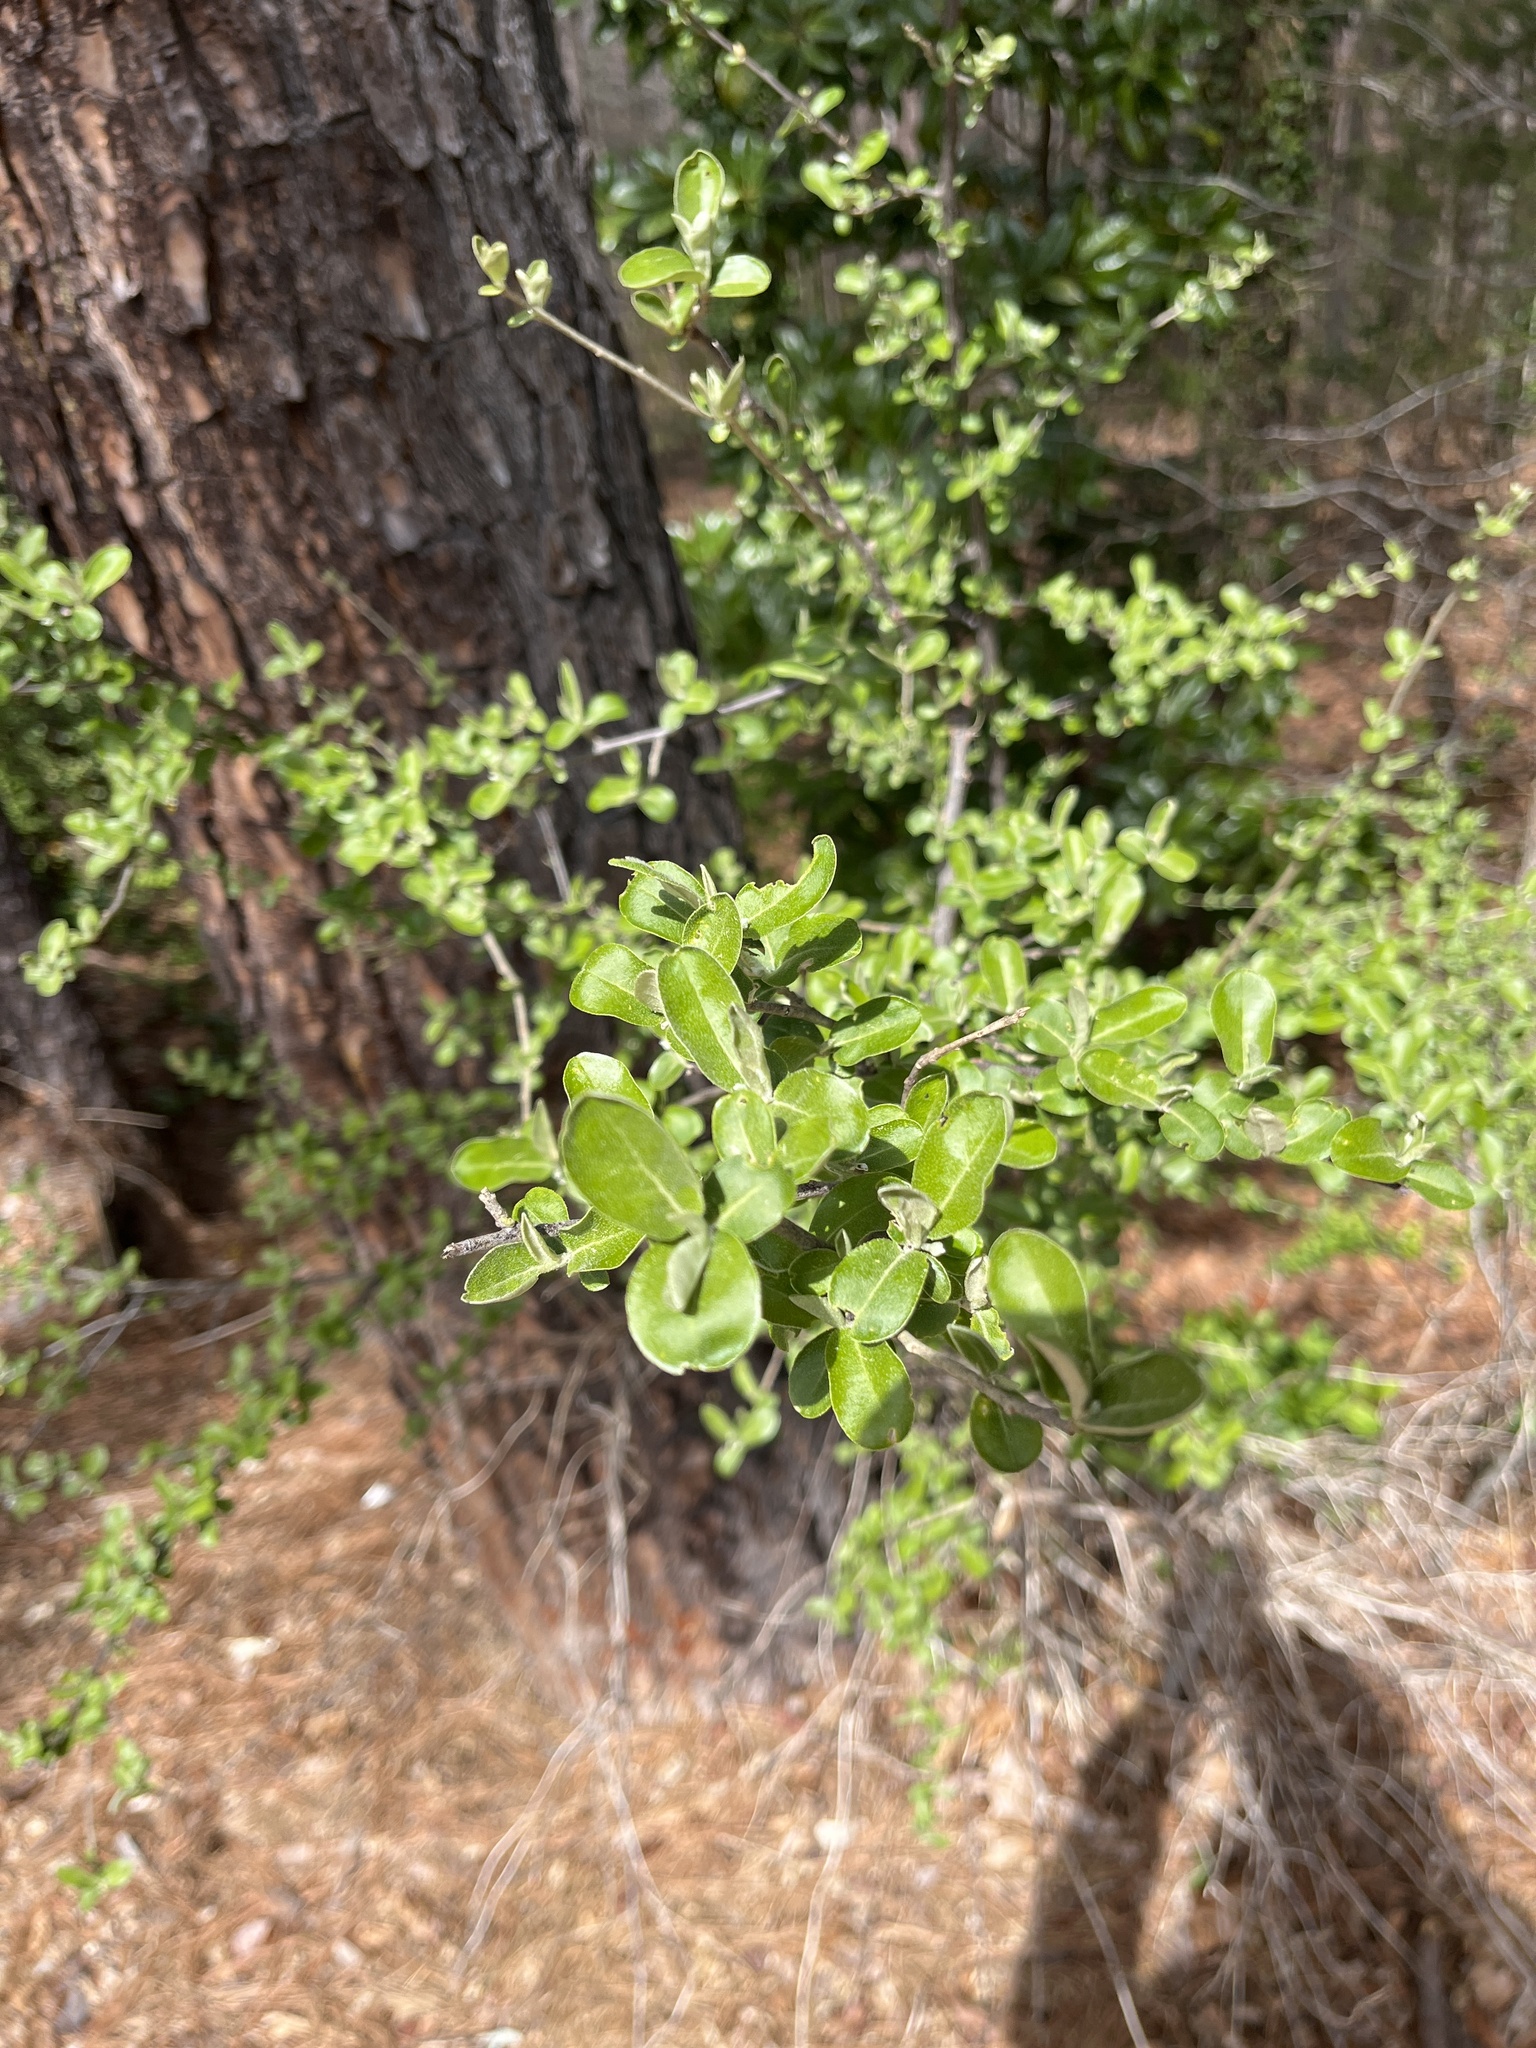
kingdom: Plantae
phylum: Tracheophyta
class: Magnoliopsida
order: Rosales
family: Elaeagnaceae
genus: Elaeagnus
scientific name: Elaeagnus umbellata
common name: Autumn olive
